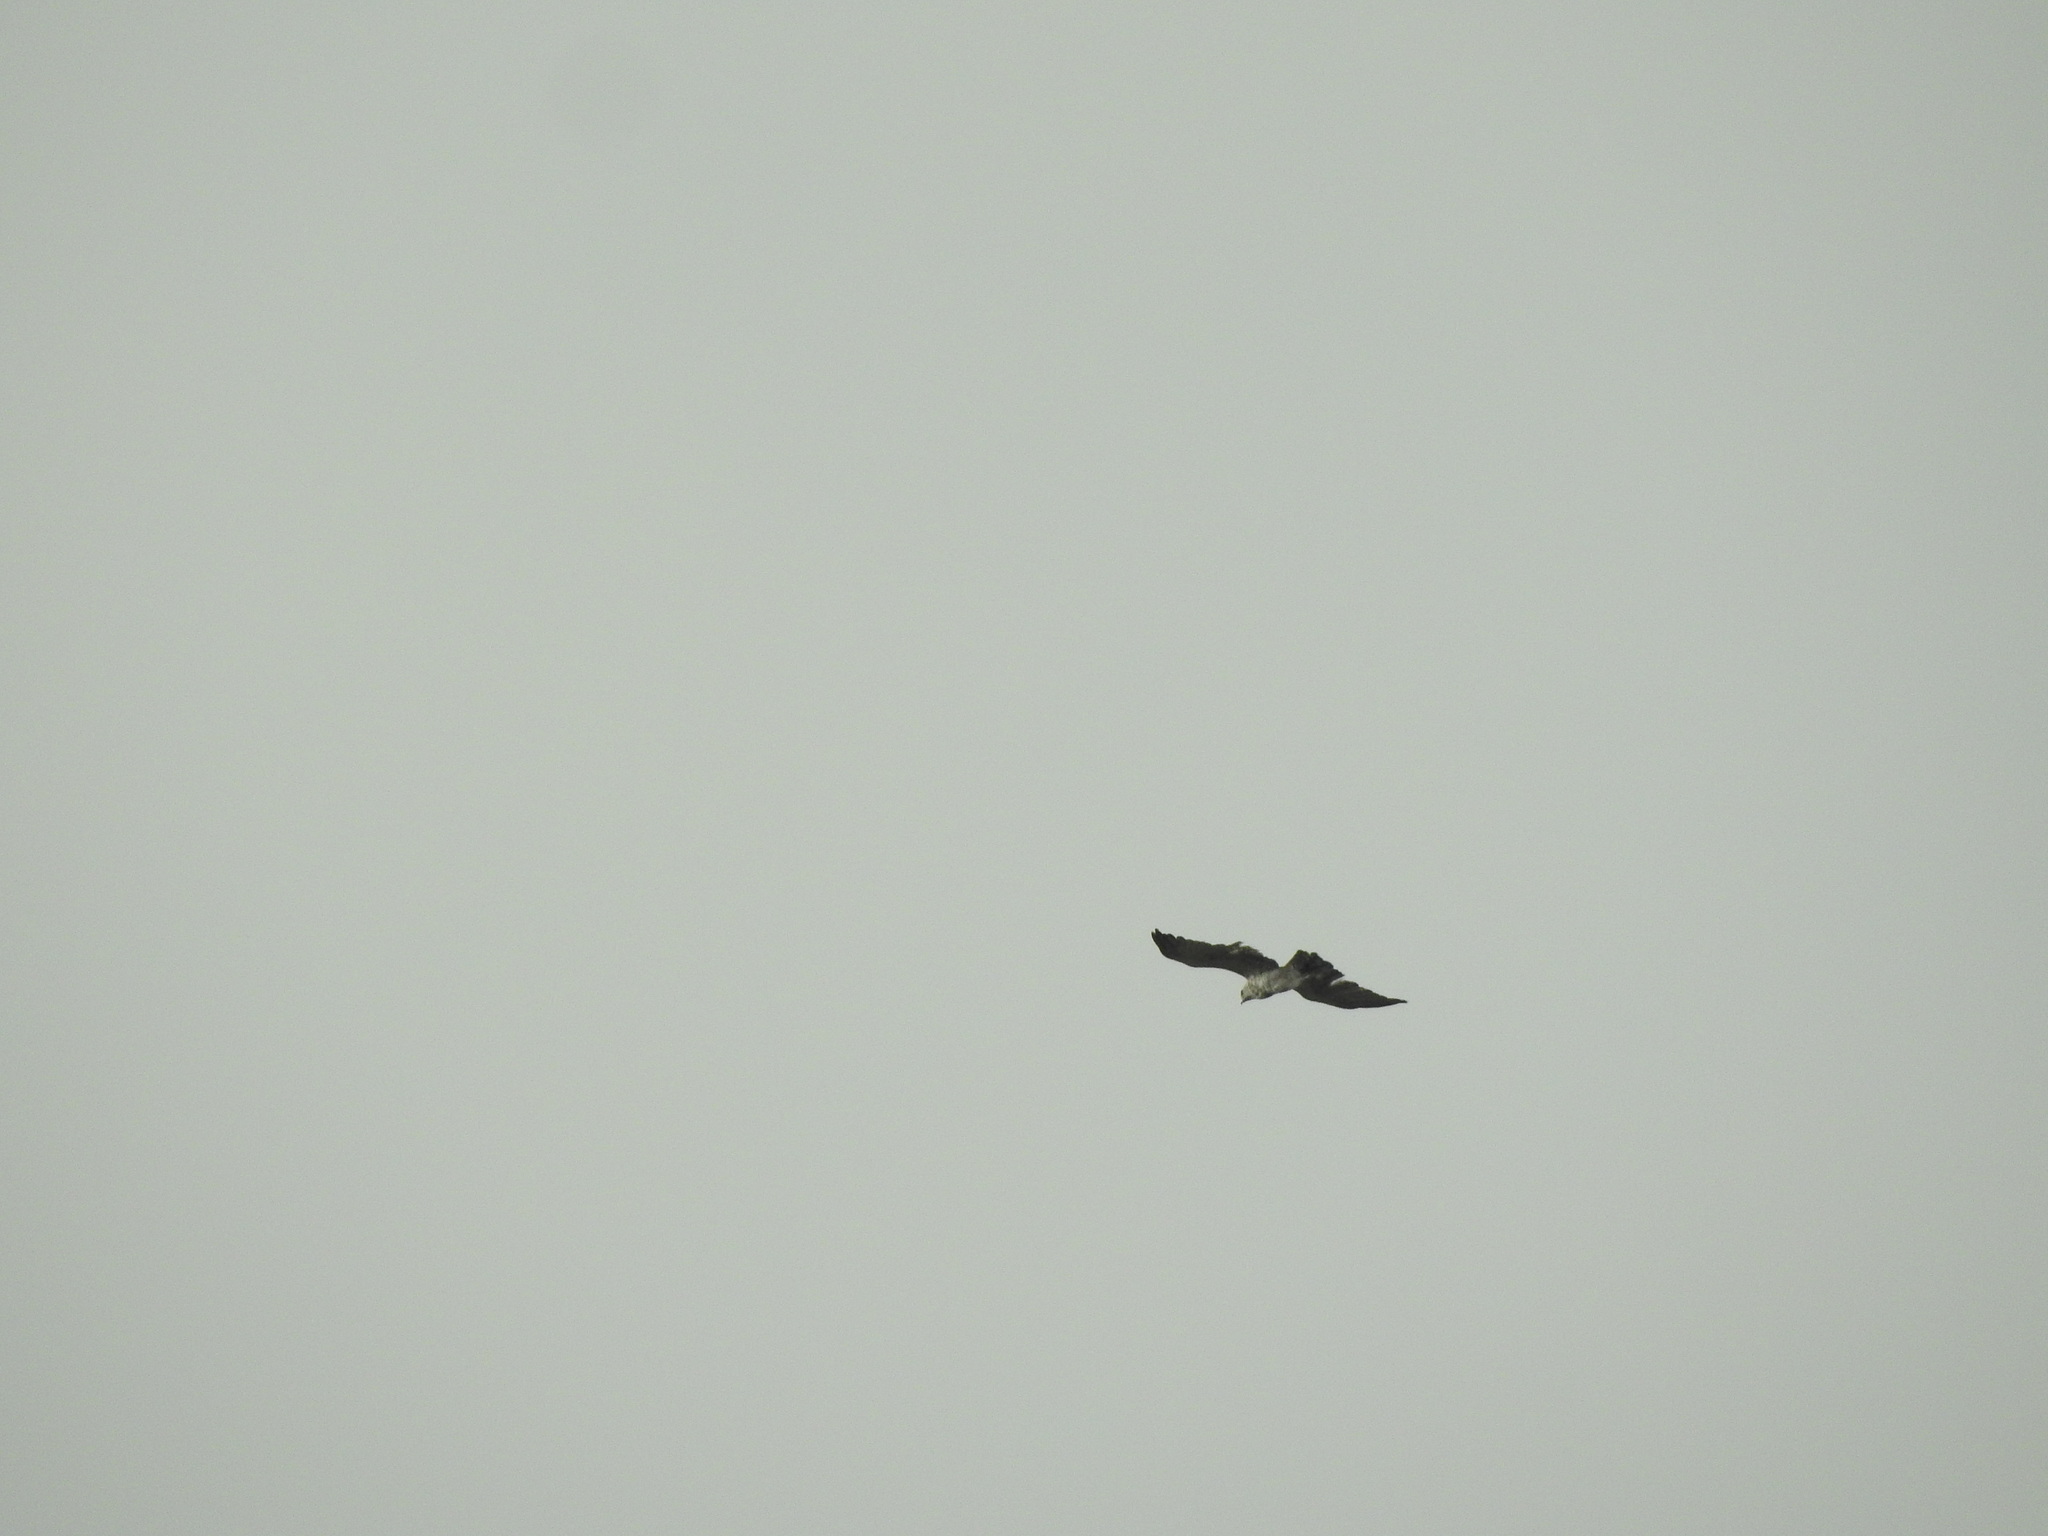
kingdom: Animalia
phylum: Chordata
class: Aves
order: Accipitriformes
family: Accipitridae
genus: Circaetus
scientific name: Circaetus gallicus
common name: Short-toed snake eagle
